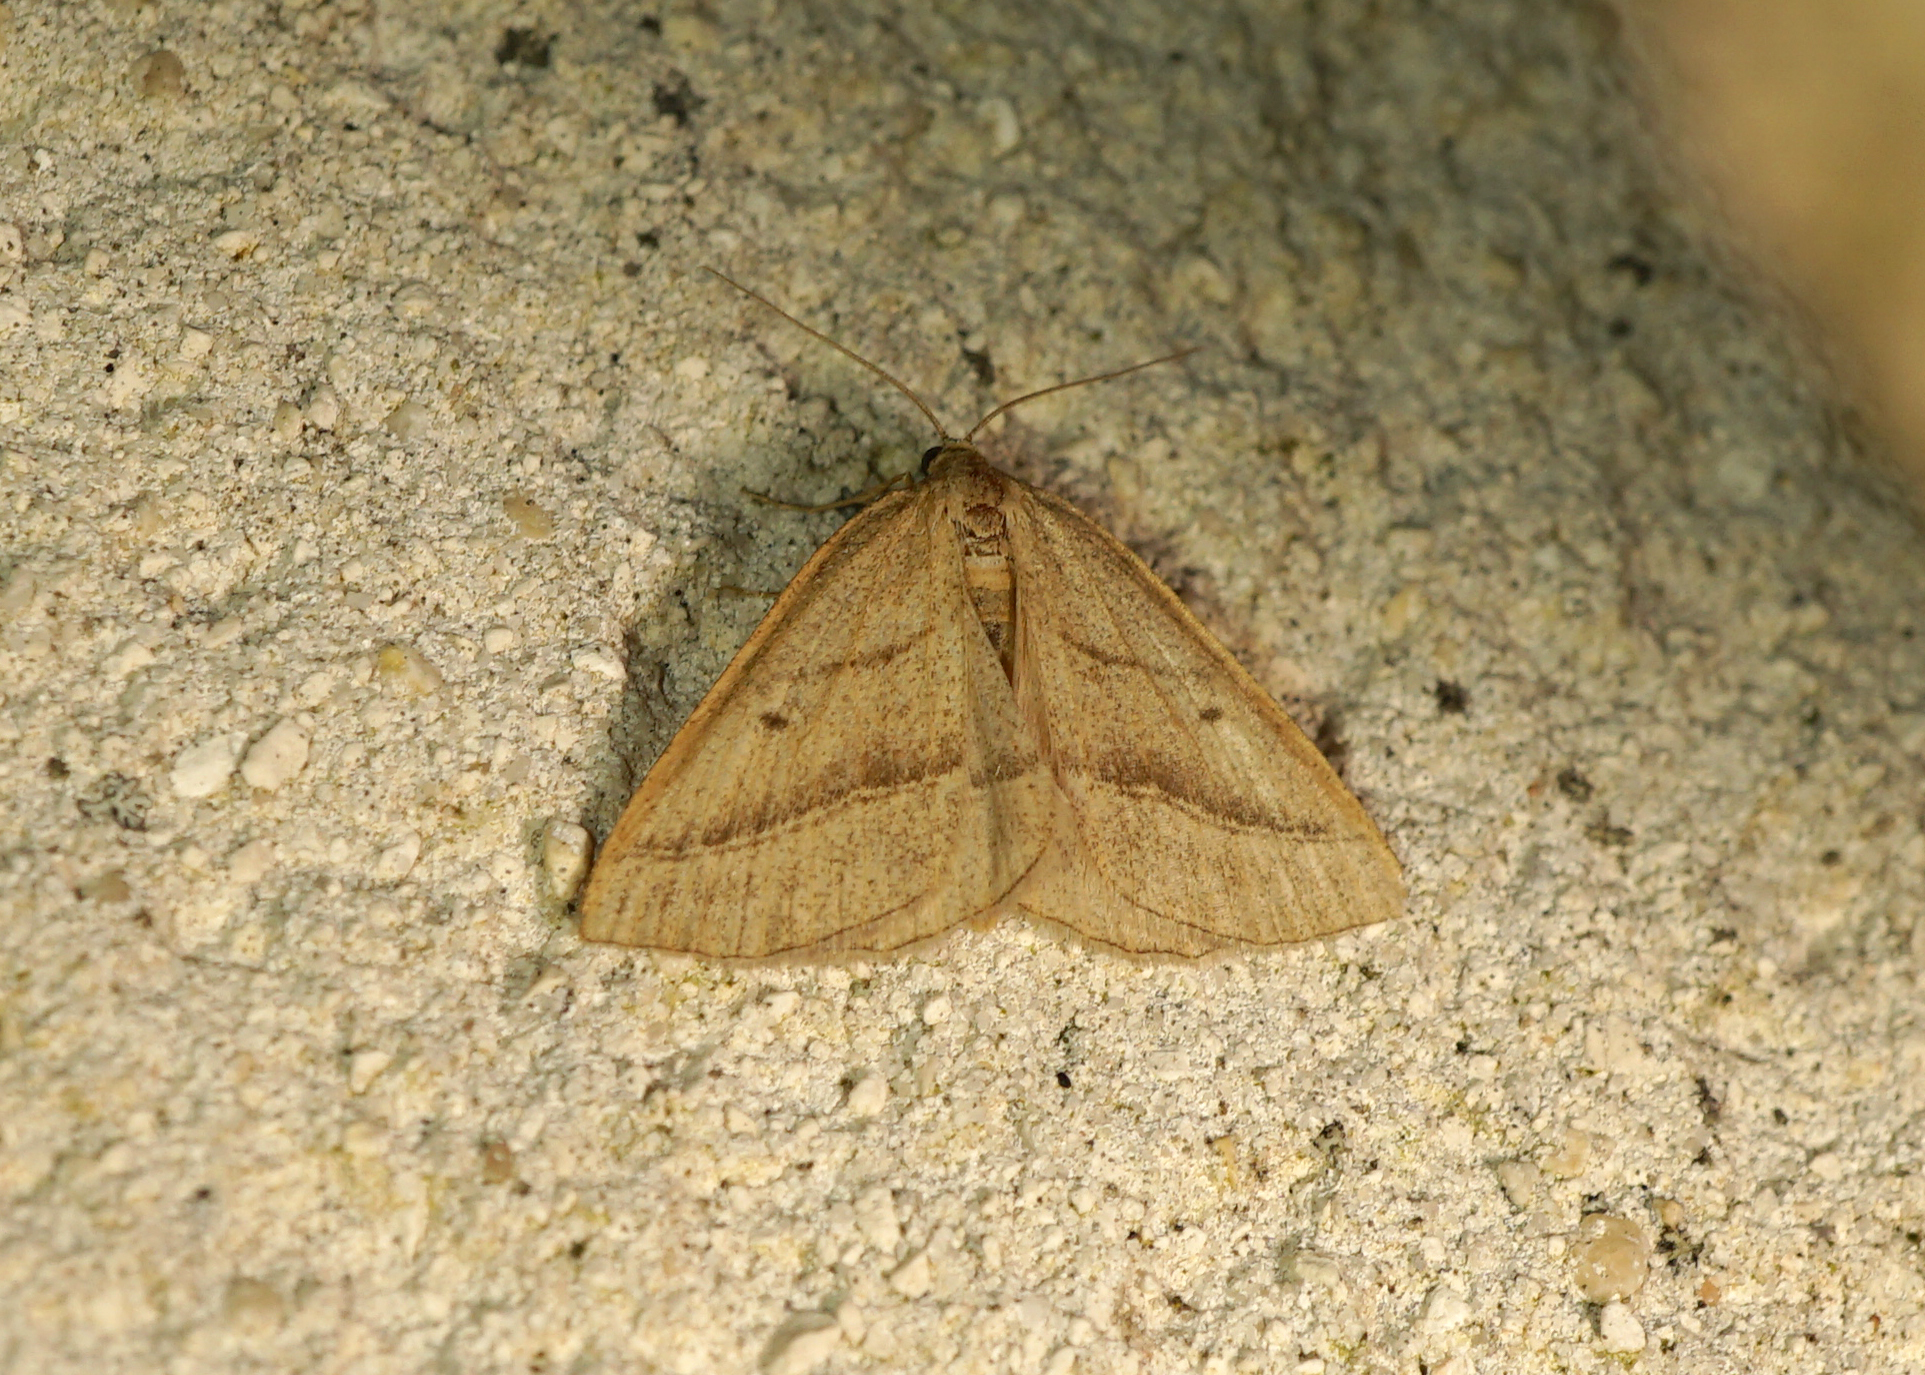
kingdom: Animalia
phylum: Arthropoda
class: Insecta
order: Lepidoptera
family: Pterophoridae
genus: Pterophorus
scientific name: Pterophorus Petrophora chlorosata
